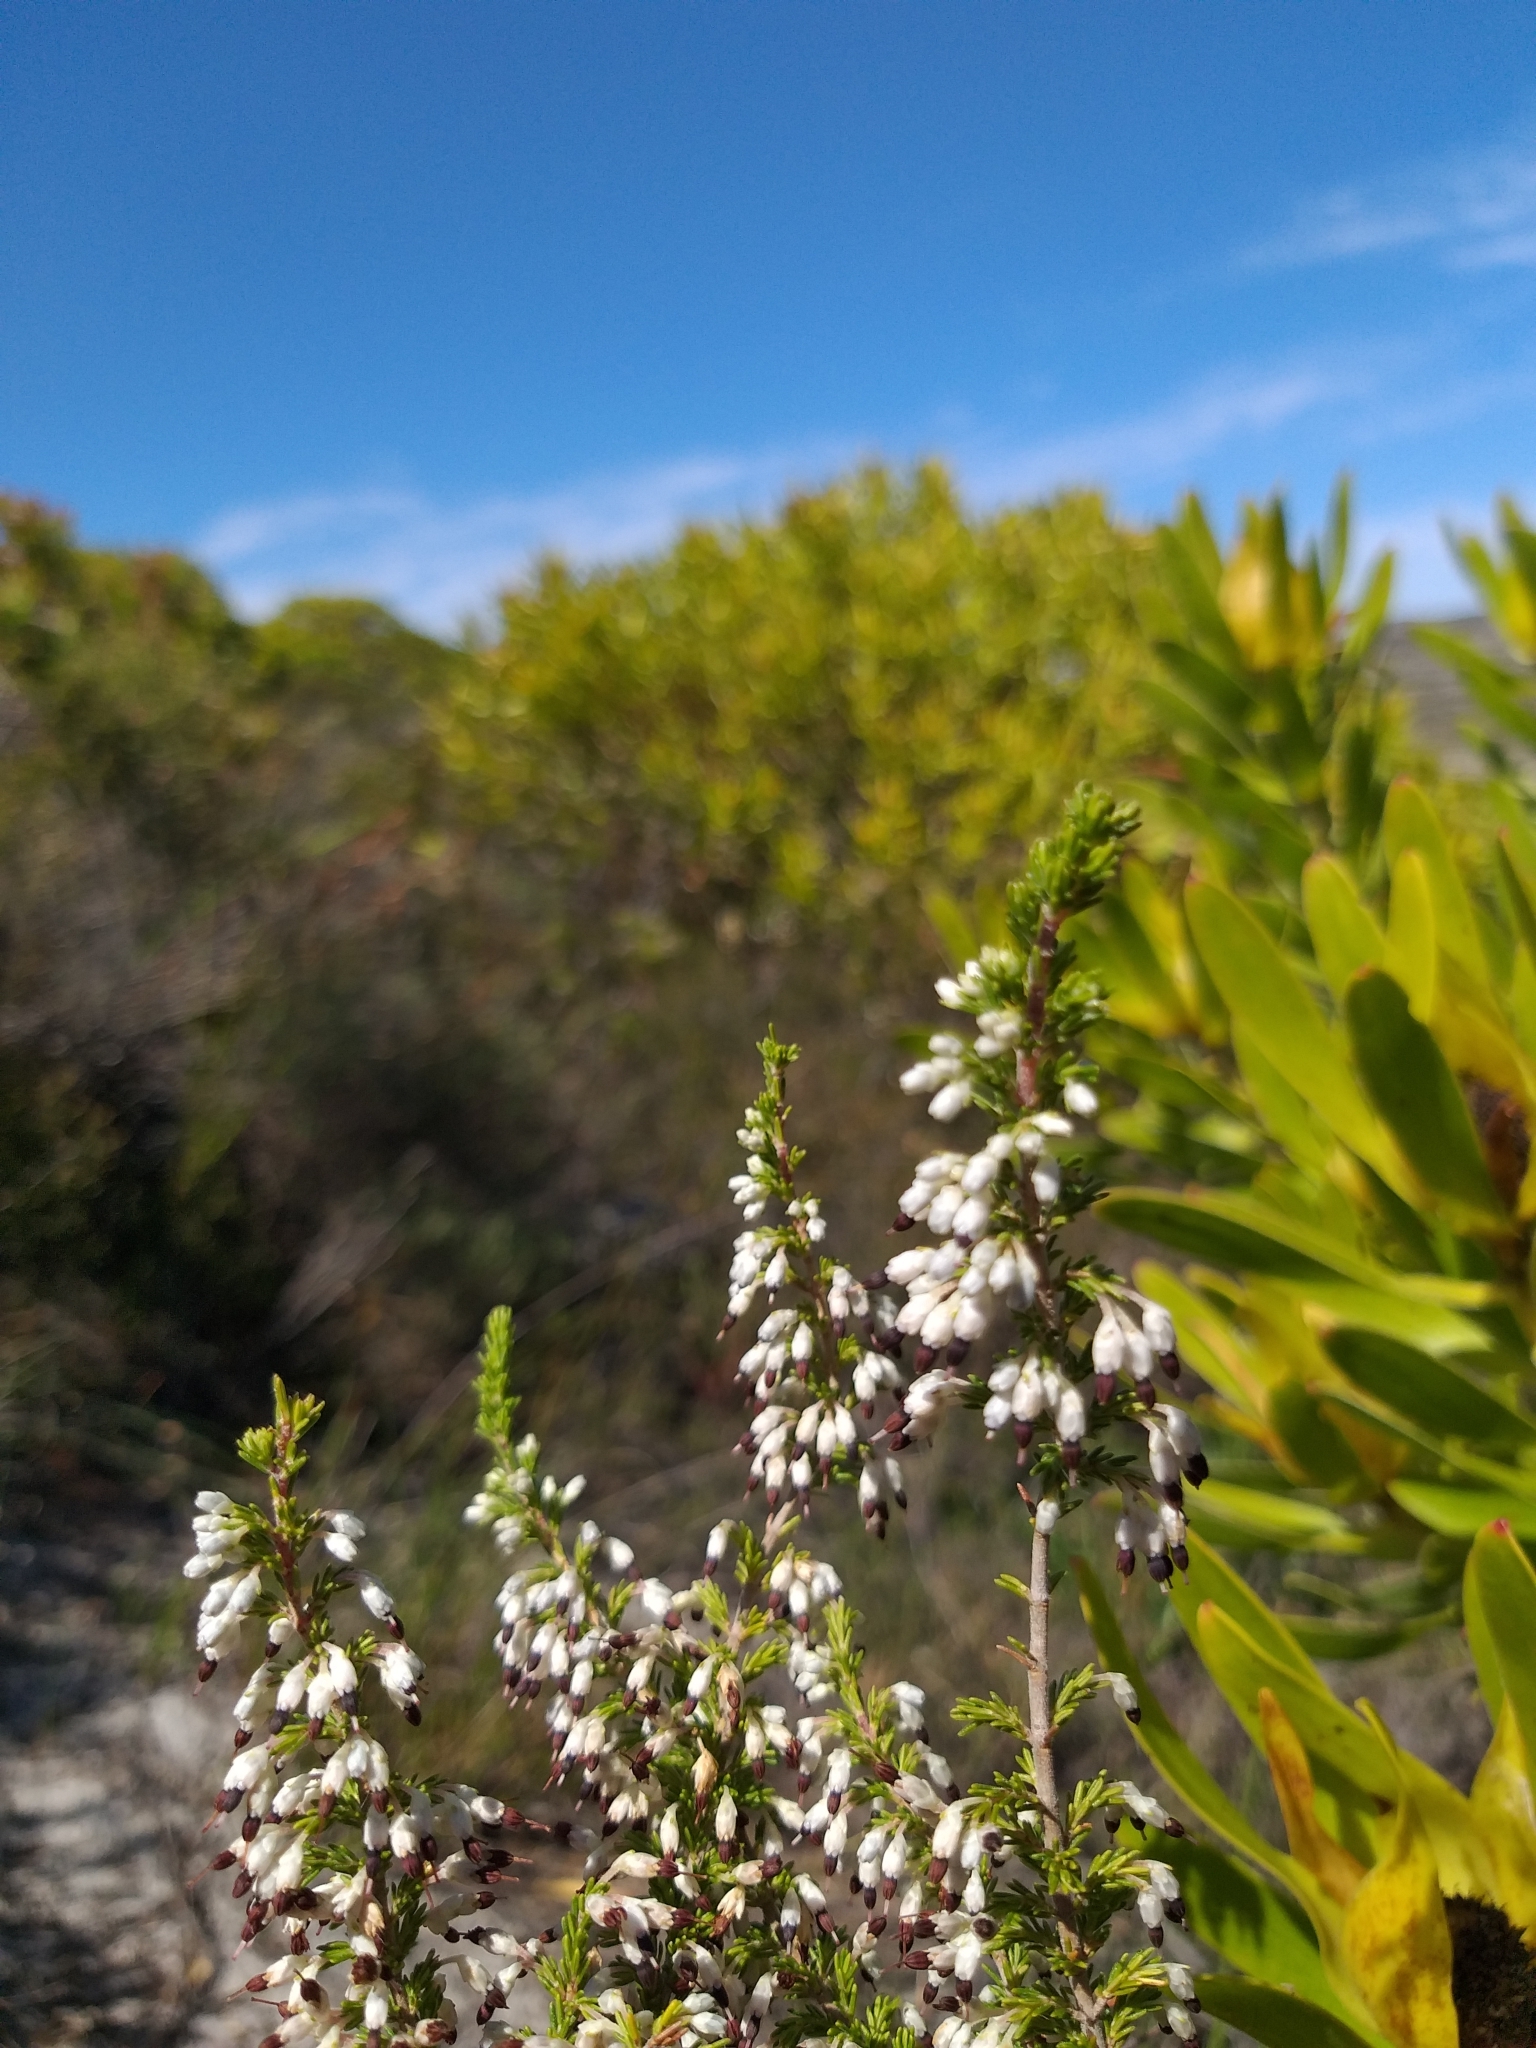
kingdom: Plantae
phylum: Tracheophyta
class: Magnoliopsida
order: Ericales
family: Ericaceae
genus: Erica
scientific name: Erica imbricata
